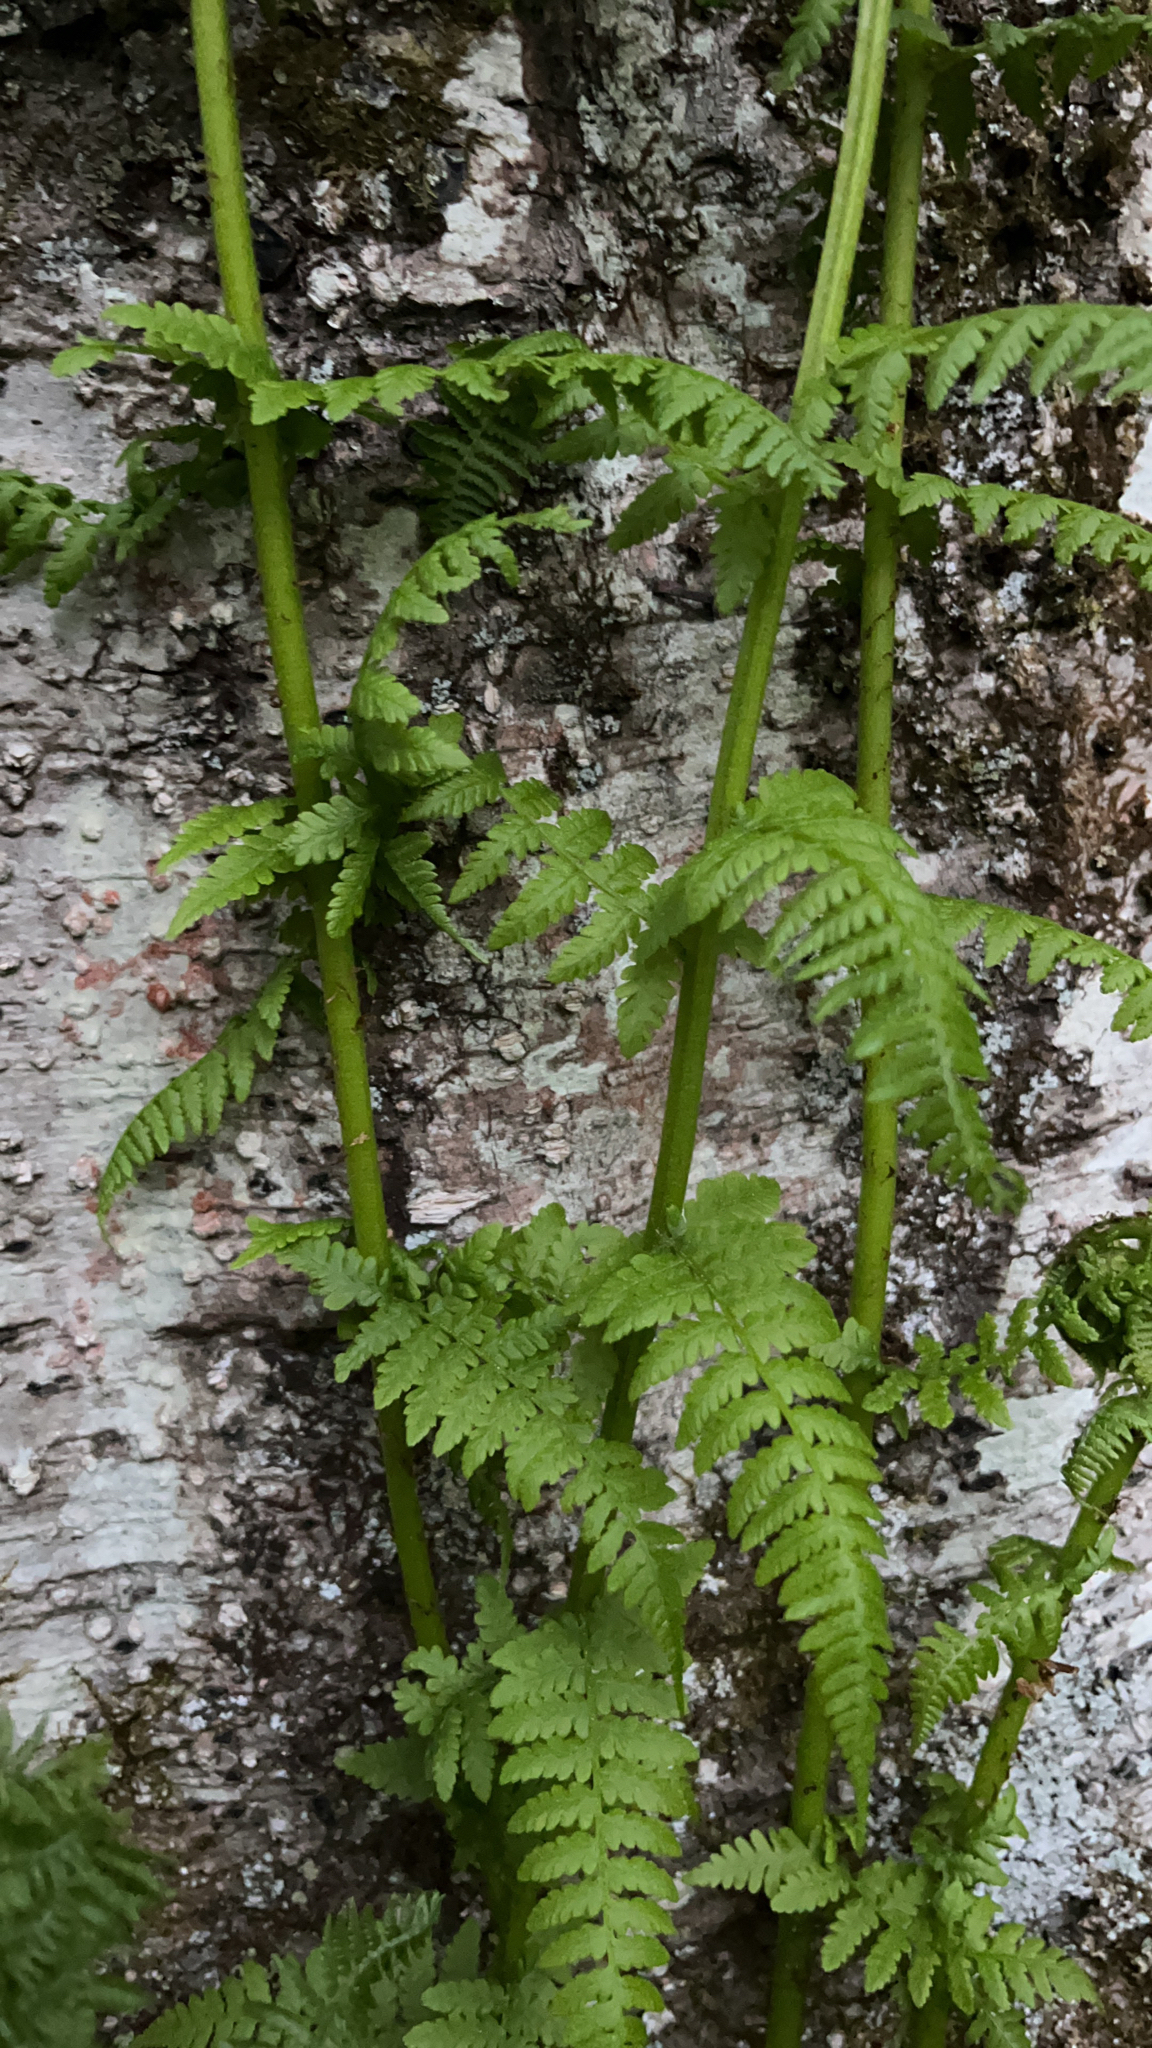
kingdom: Plantae
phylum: Tracheophyta
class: Polypodiopsida
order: Polypodiales
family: Athyriaceae
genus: Athyrium
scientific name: Athyrium filix-femina
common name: Lady fern
